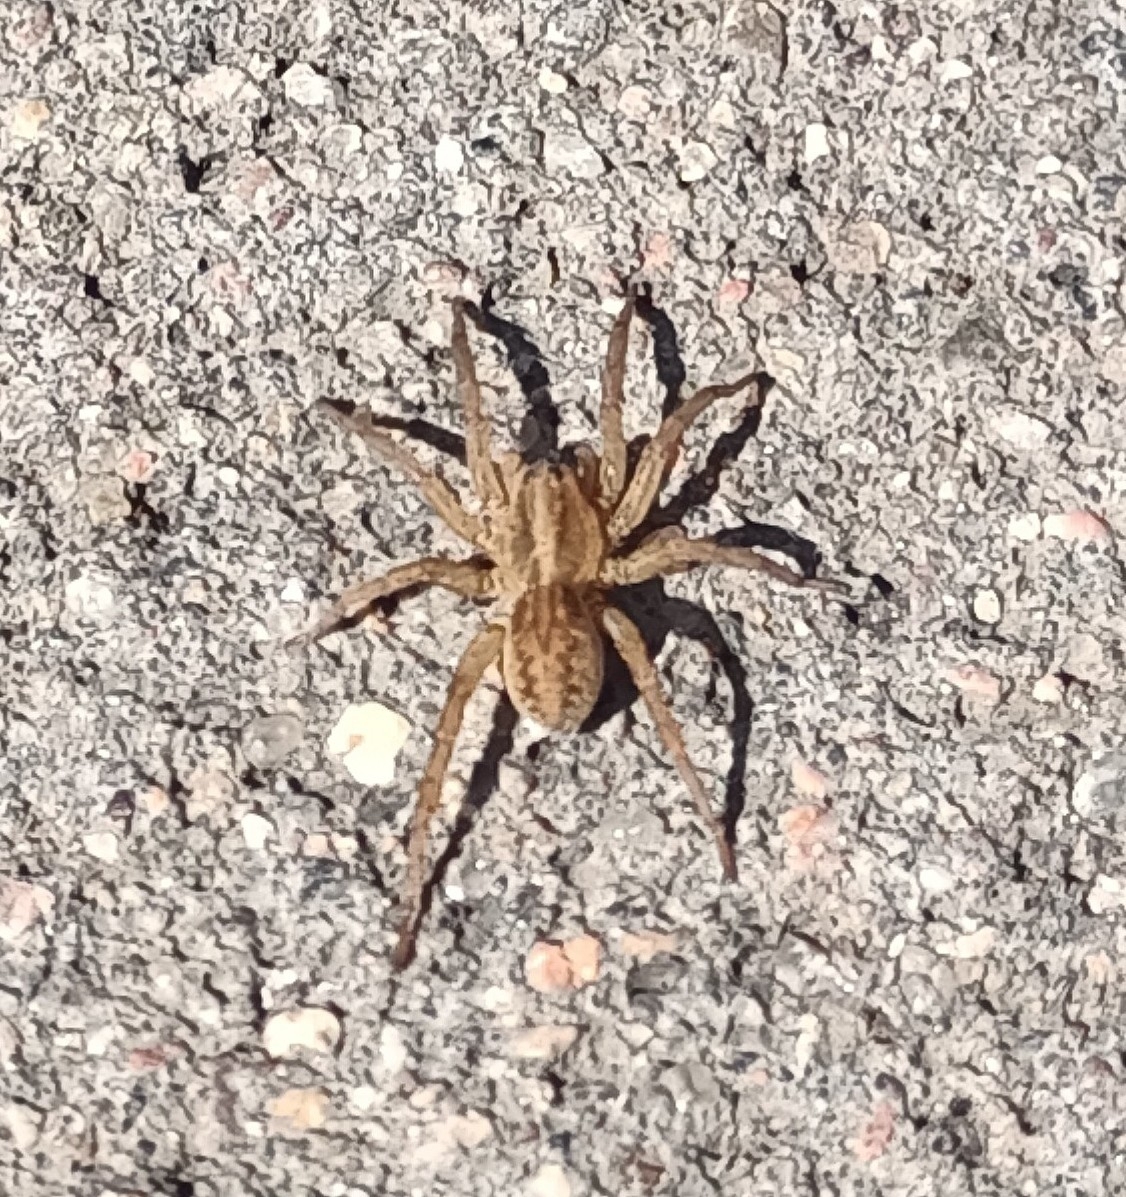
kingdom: Animalia
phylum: Arthropoda
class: Arachnida
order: Araneae
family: Lycosidae
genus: Trochosa
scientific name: Trochosa
